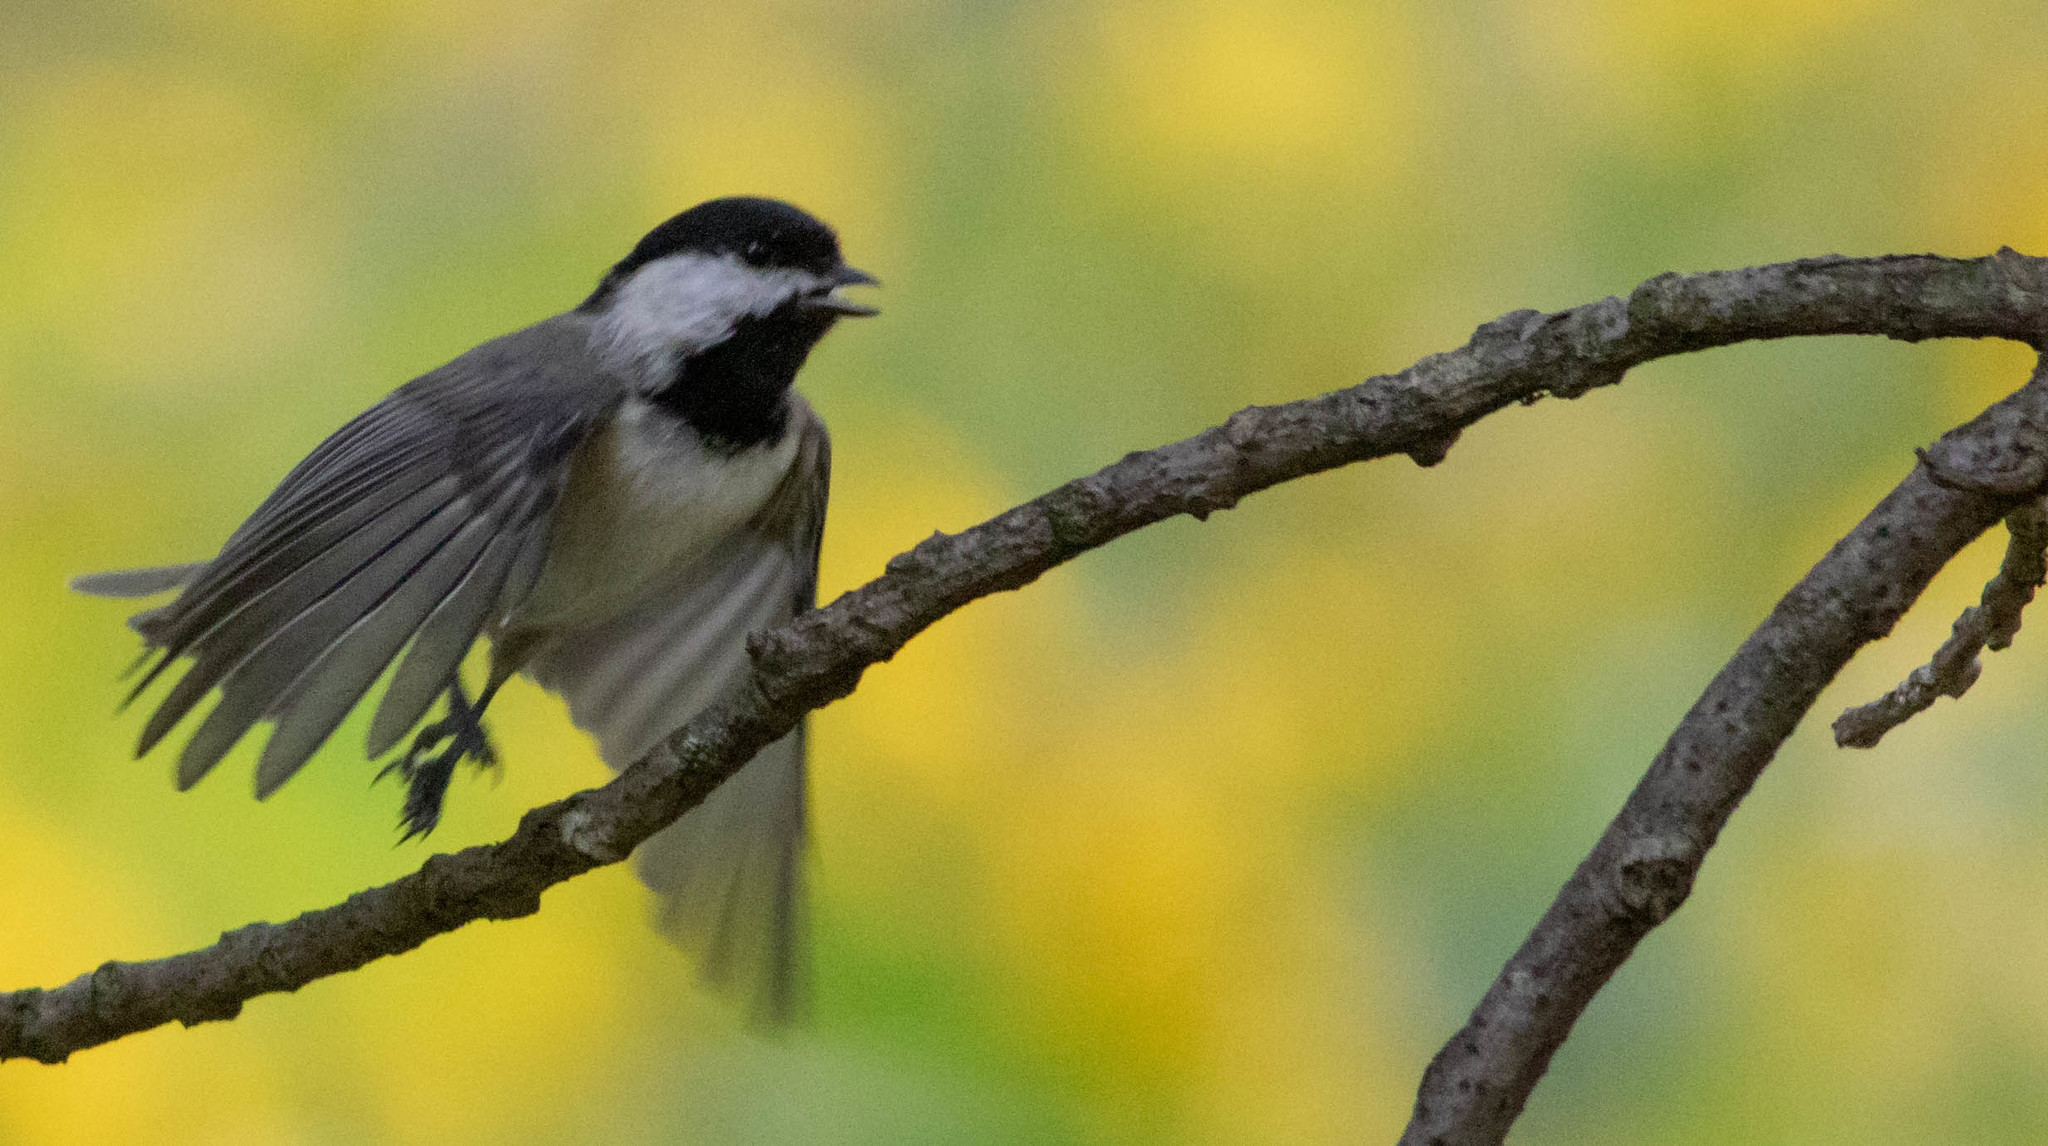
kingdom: Animalia
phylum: Chordata
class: Aves
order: Passeriformes
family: Paridae
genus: Poecile
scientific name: Poecile carolinensis
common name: Carolina chickadee
